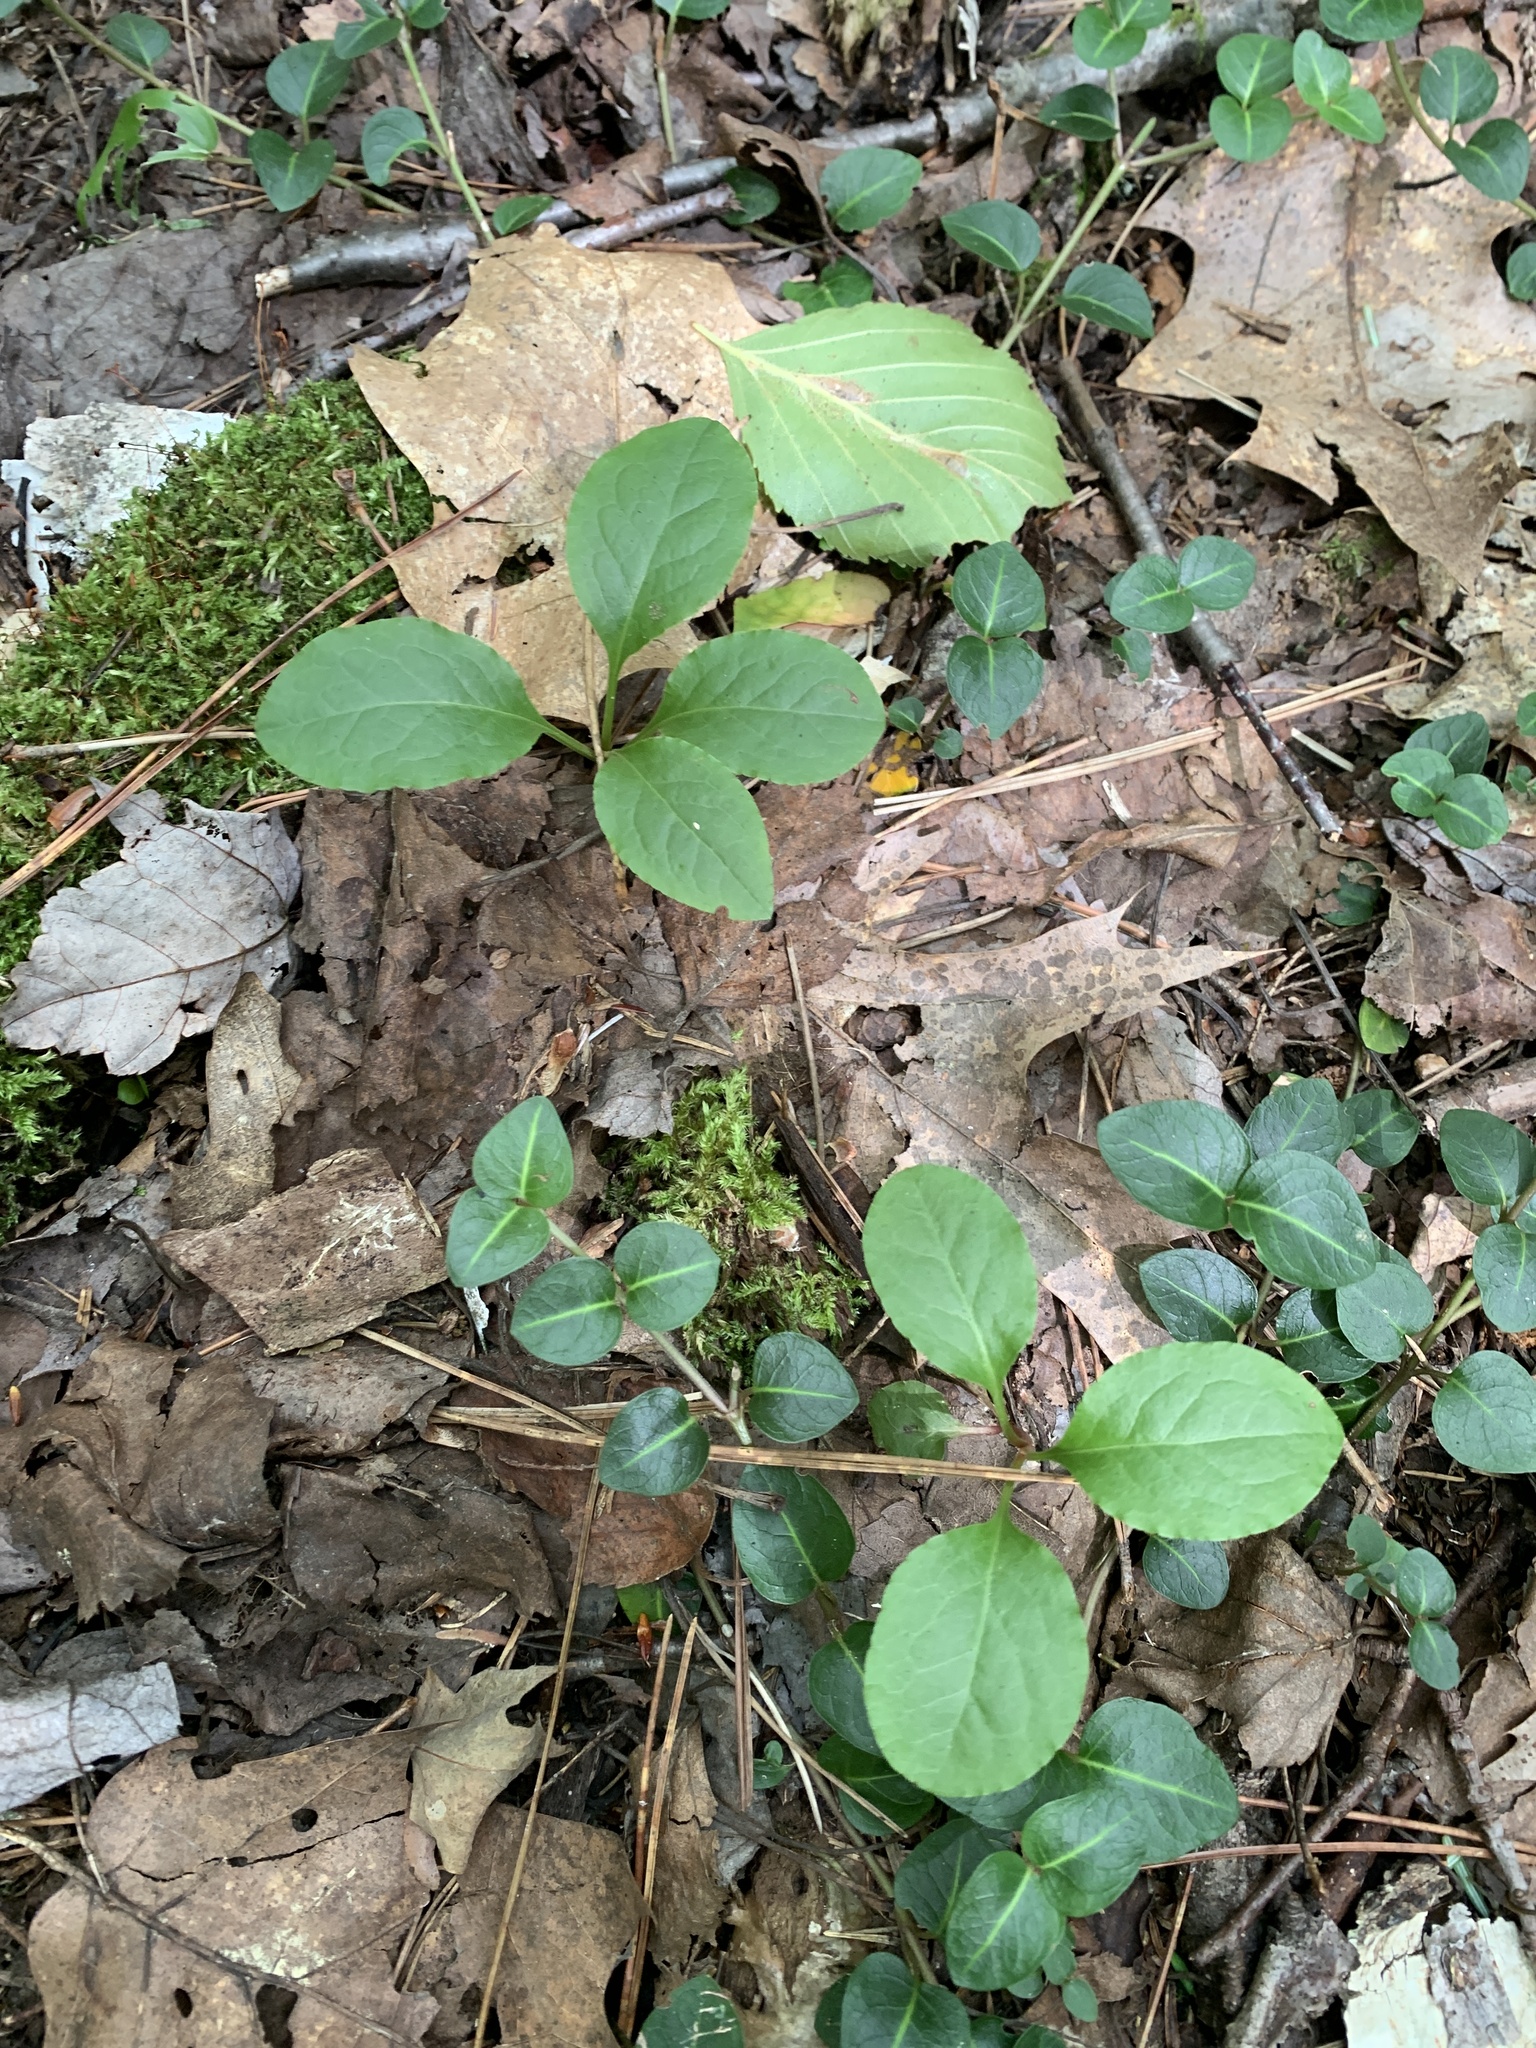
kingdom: Plantae
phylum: Tracheophyta
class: Magnoliopsida
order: Ericales
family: Ericaceae
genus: Pyrola
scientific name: Pyrola elliptica
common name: Shinleaf
